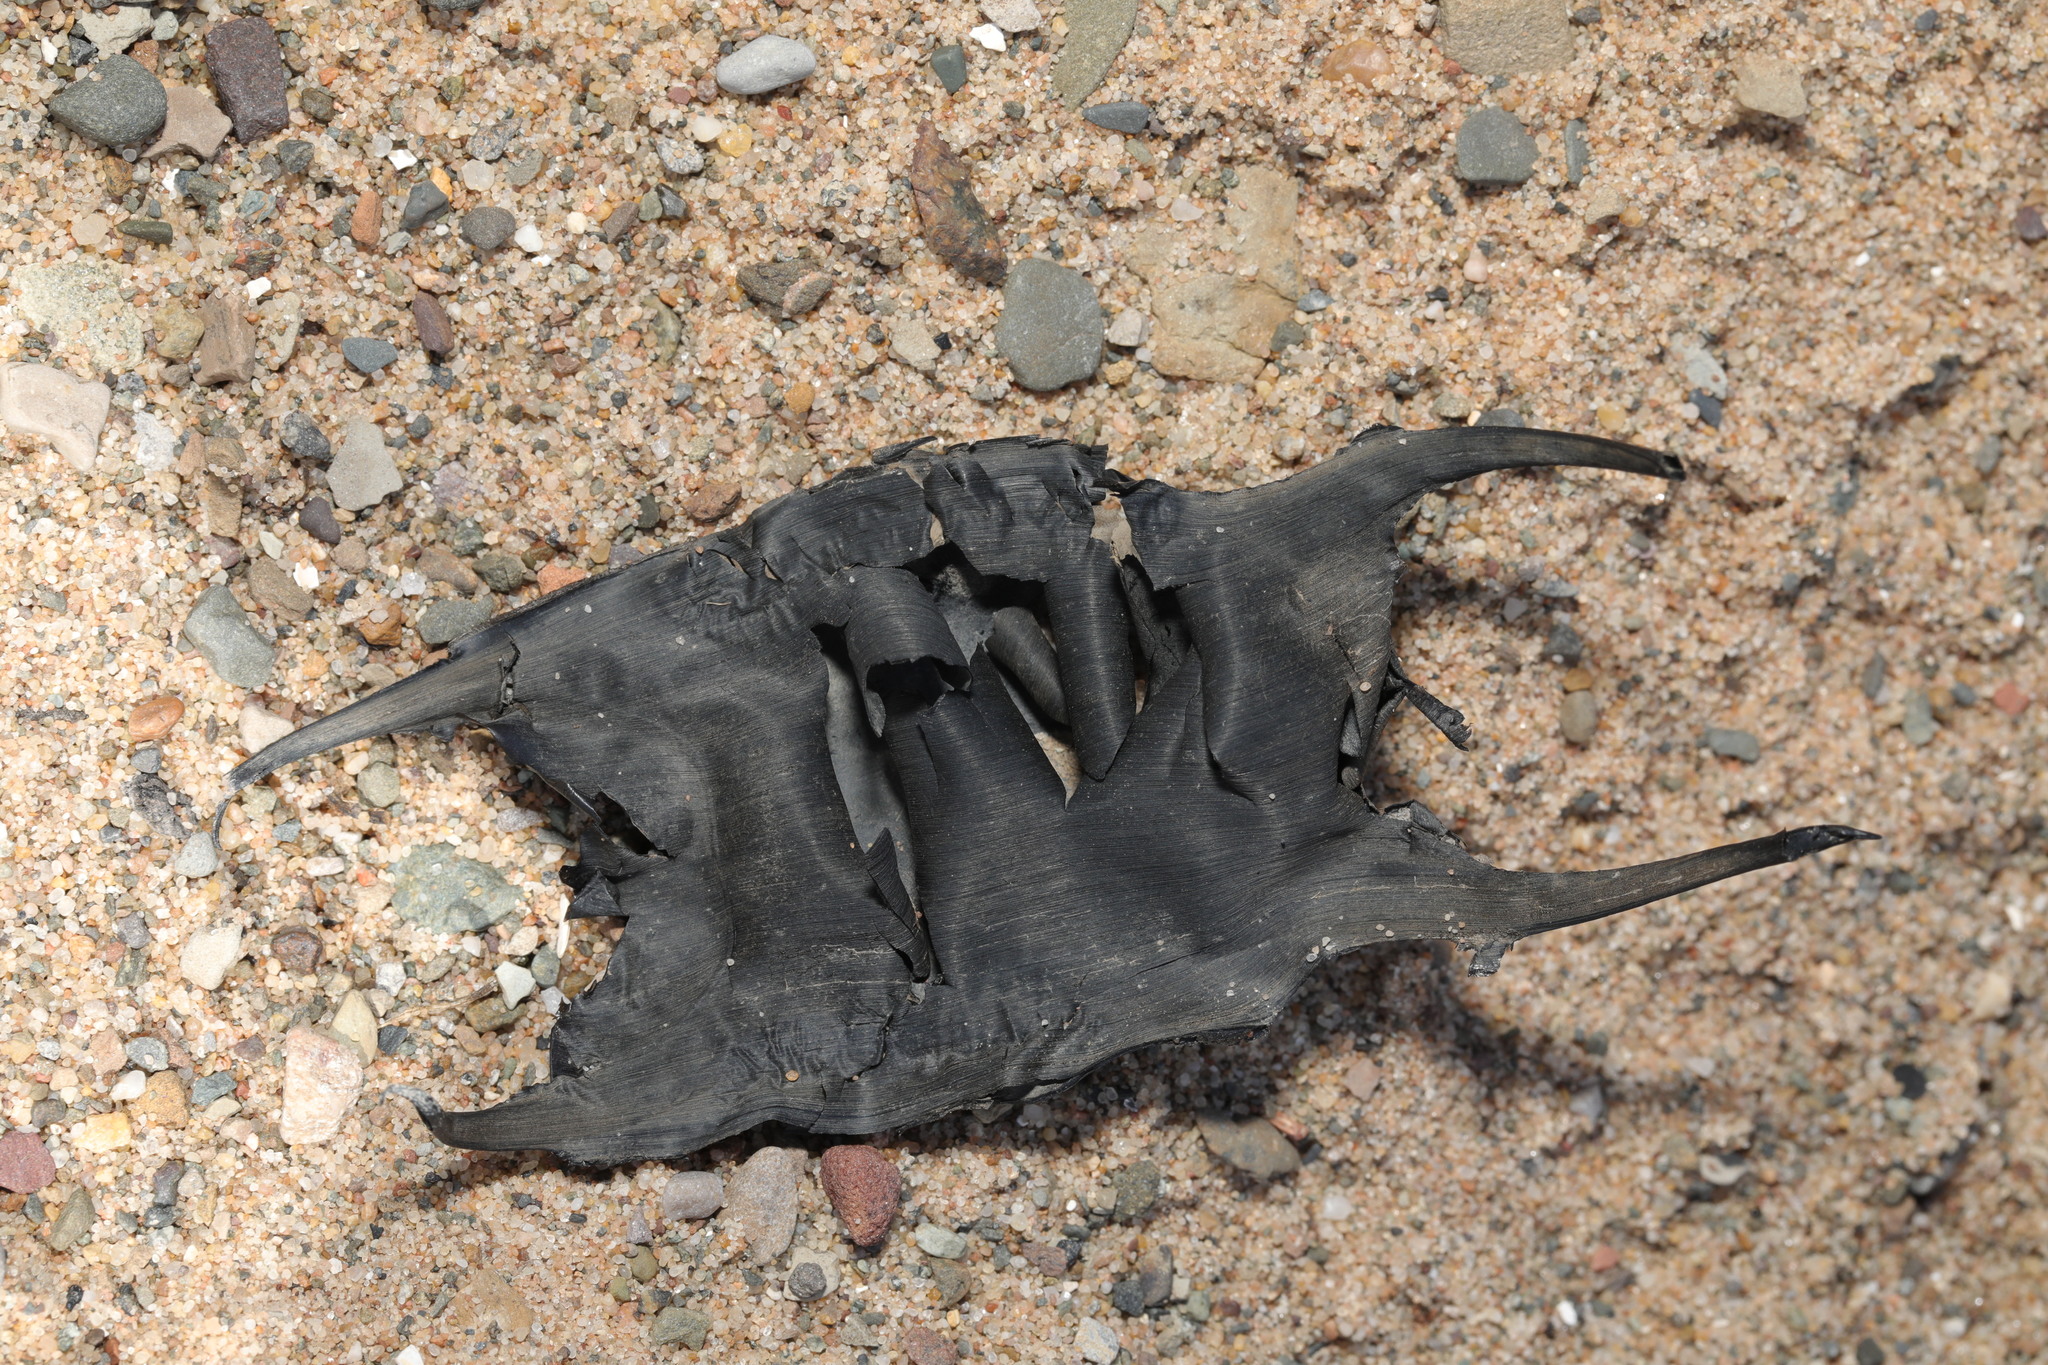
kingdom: Animalia
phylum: Chordata
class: Elasmobranchii
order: Rajiformes
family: Rajidae
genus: Raja
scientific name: Raja clavata
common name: Thornback ray
